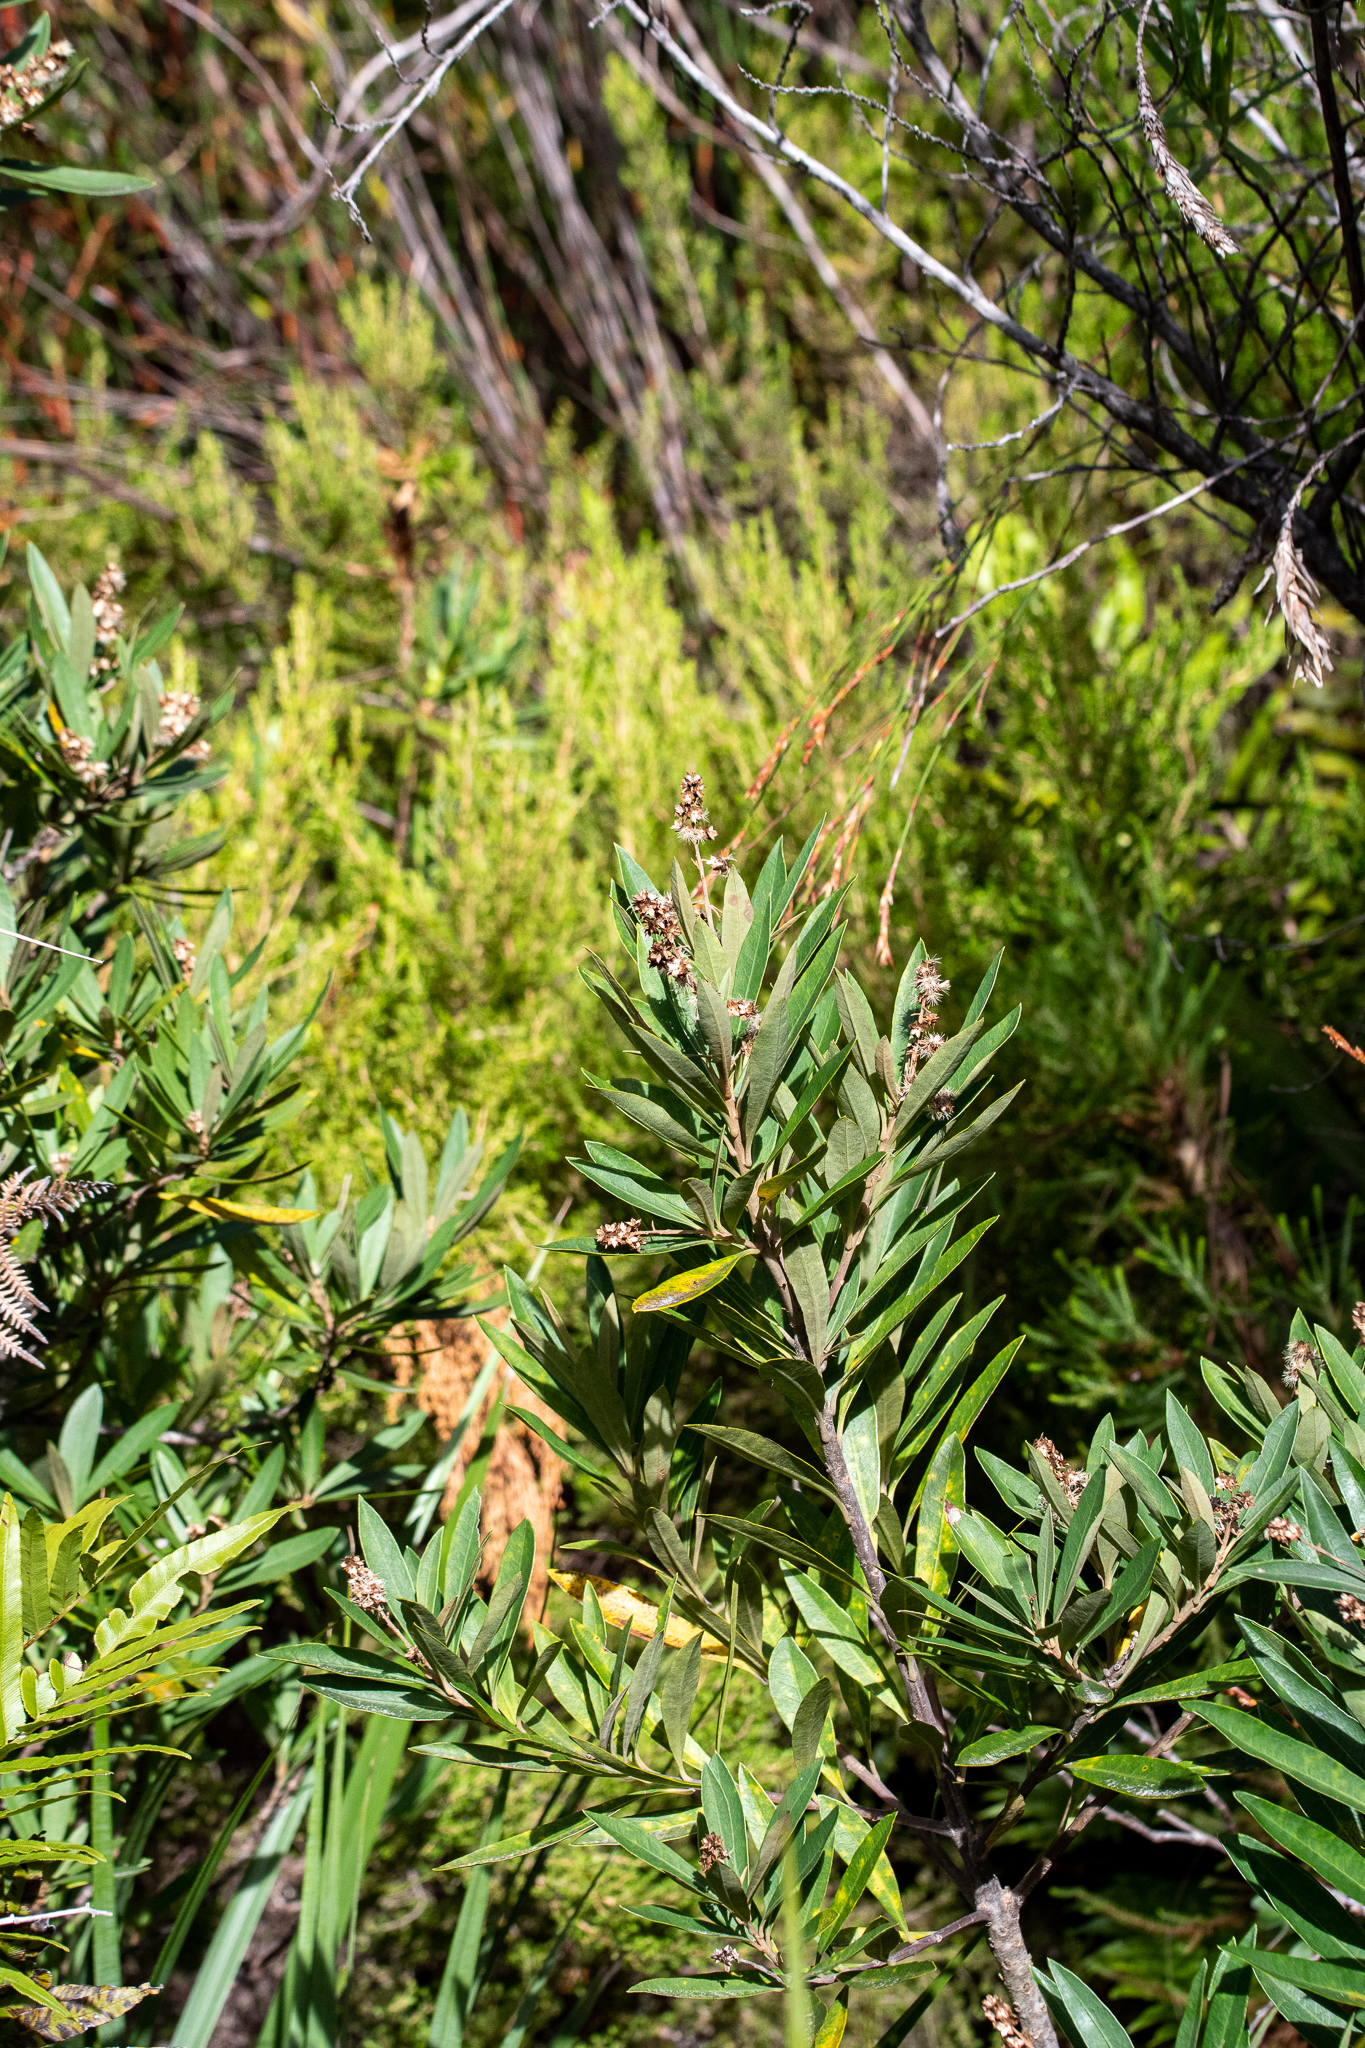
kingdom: Plantae
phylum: Tracheophyta
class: Magnoliopsida
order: Asterales
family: Asteraceae
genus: Brachylaena
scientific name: Brachylaena neriifolia
